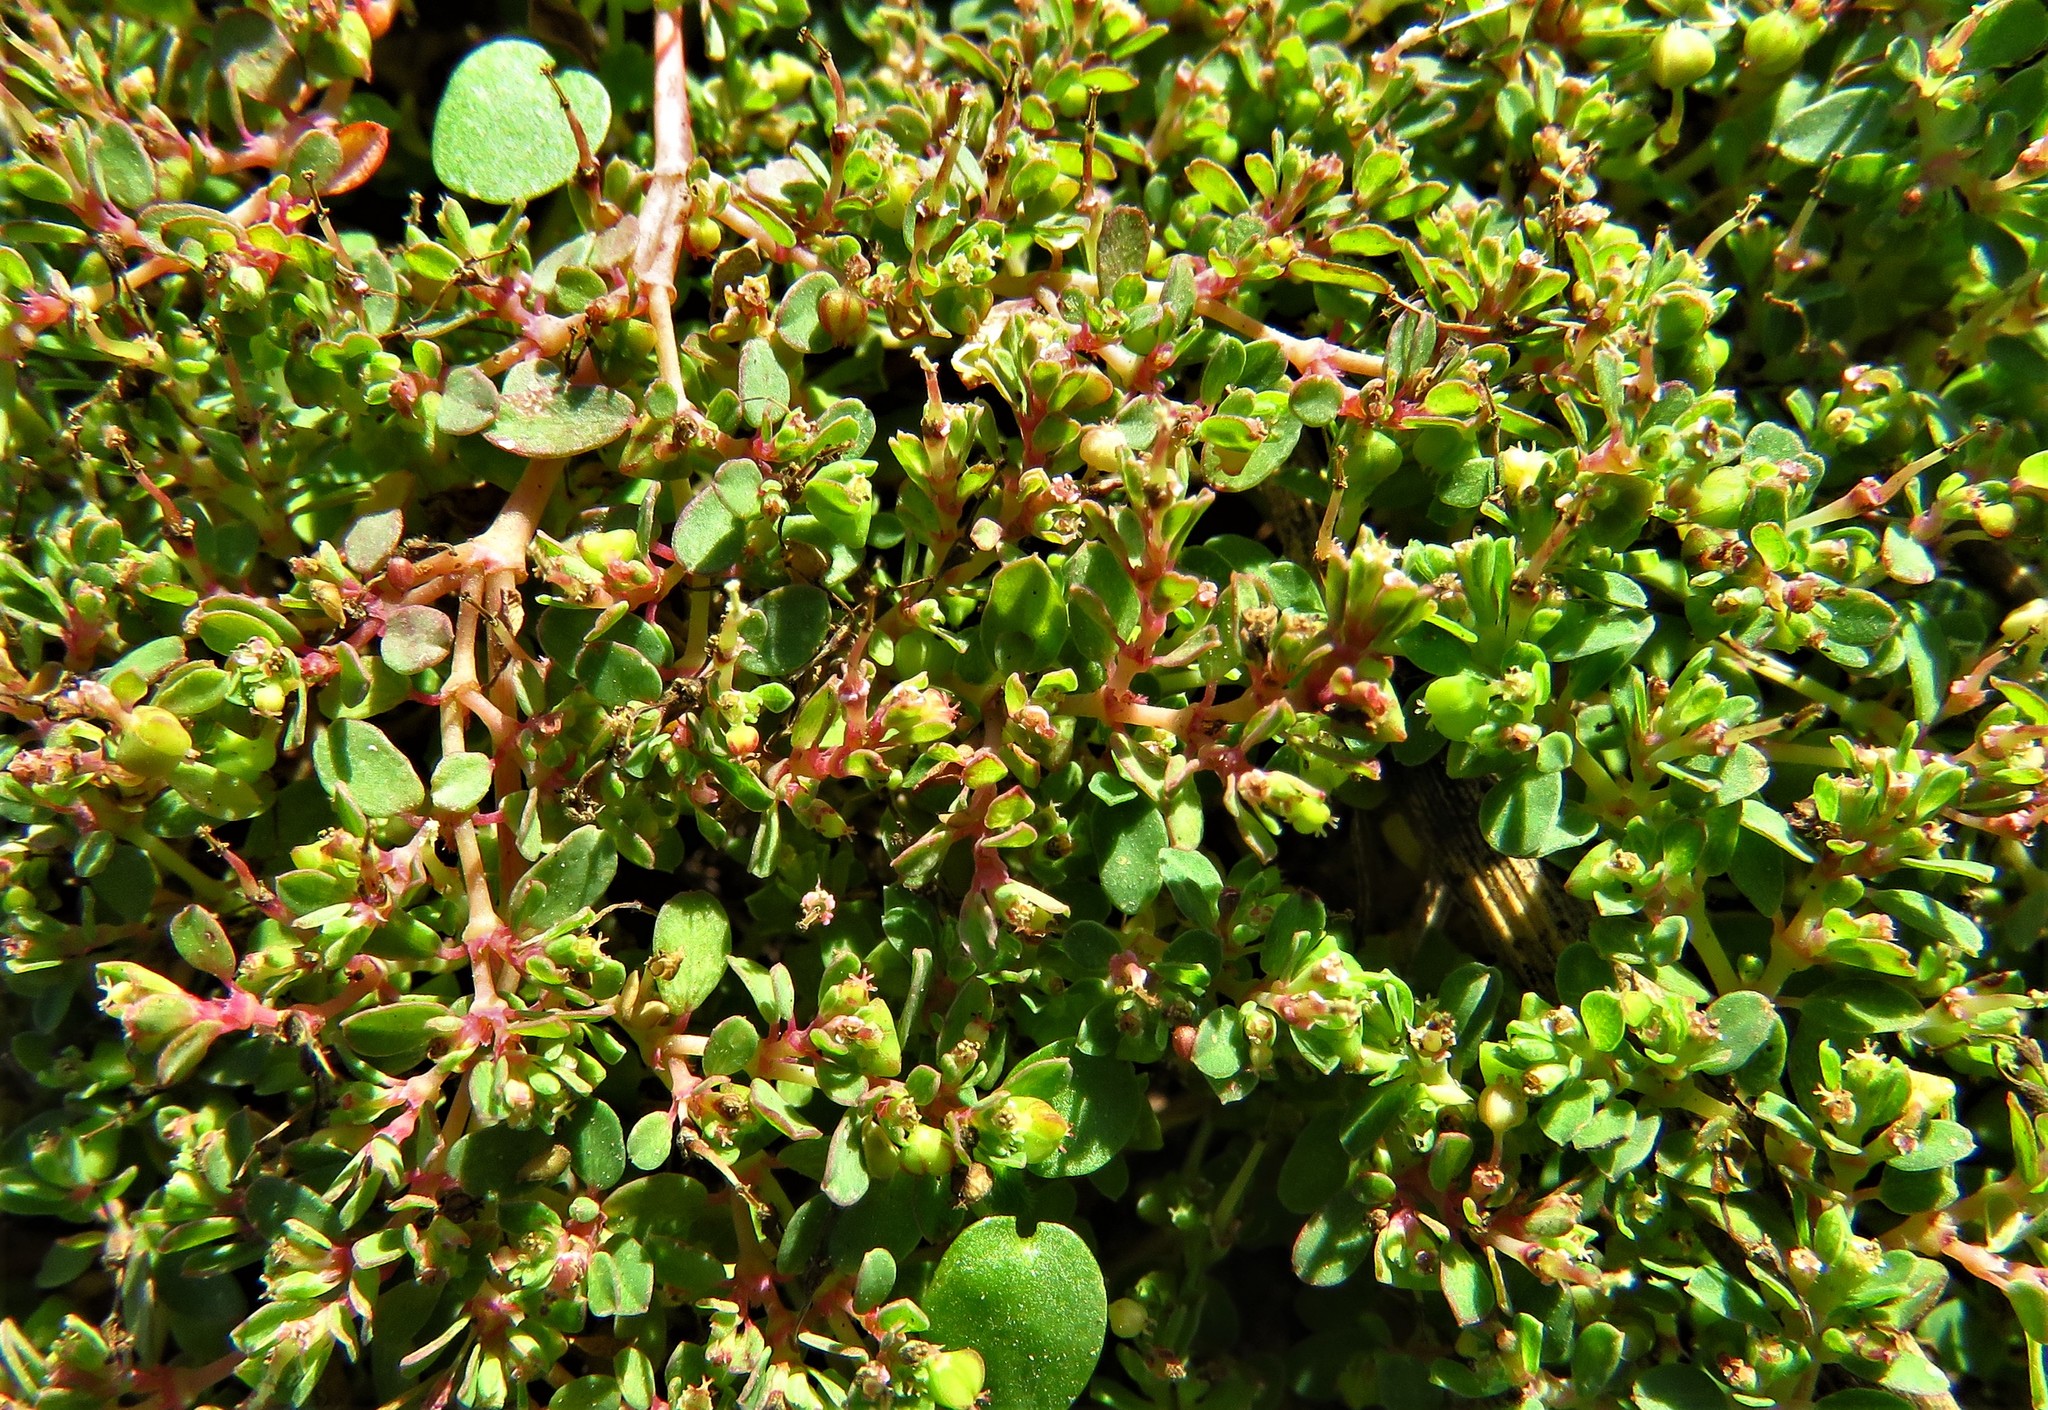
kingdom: Plantae
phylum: Tracheophyta
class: Magnoliopsida
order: Malpighiales
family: Euphorbiaceae
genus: Euphorbia
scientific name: Euphorbia serpens
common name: Matted sandmat
